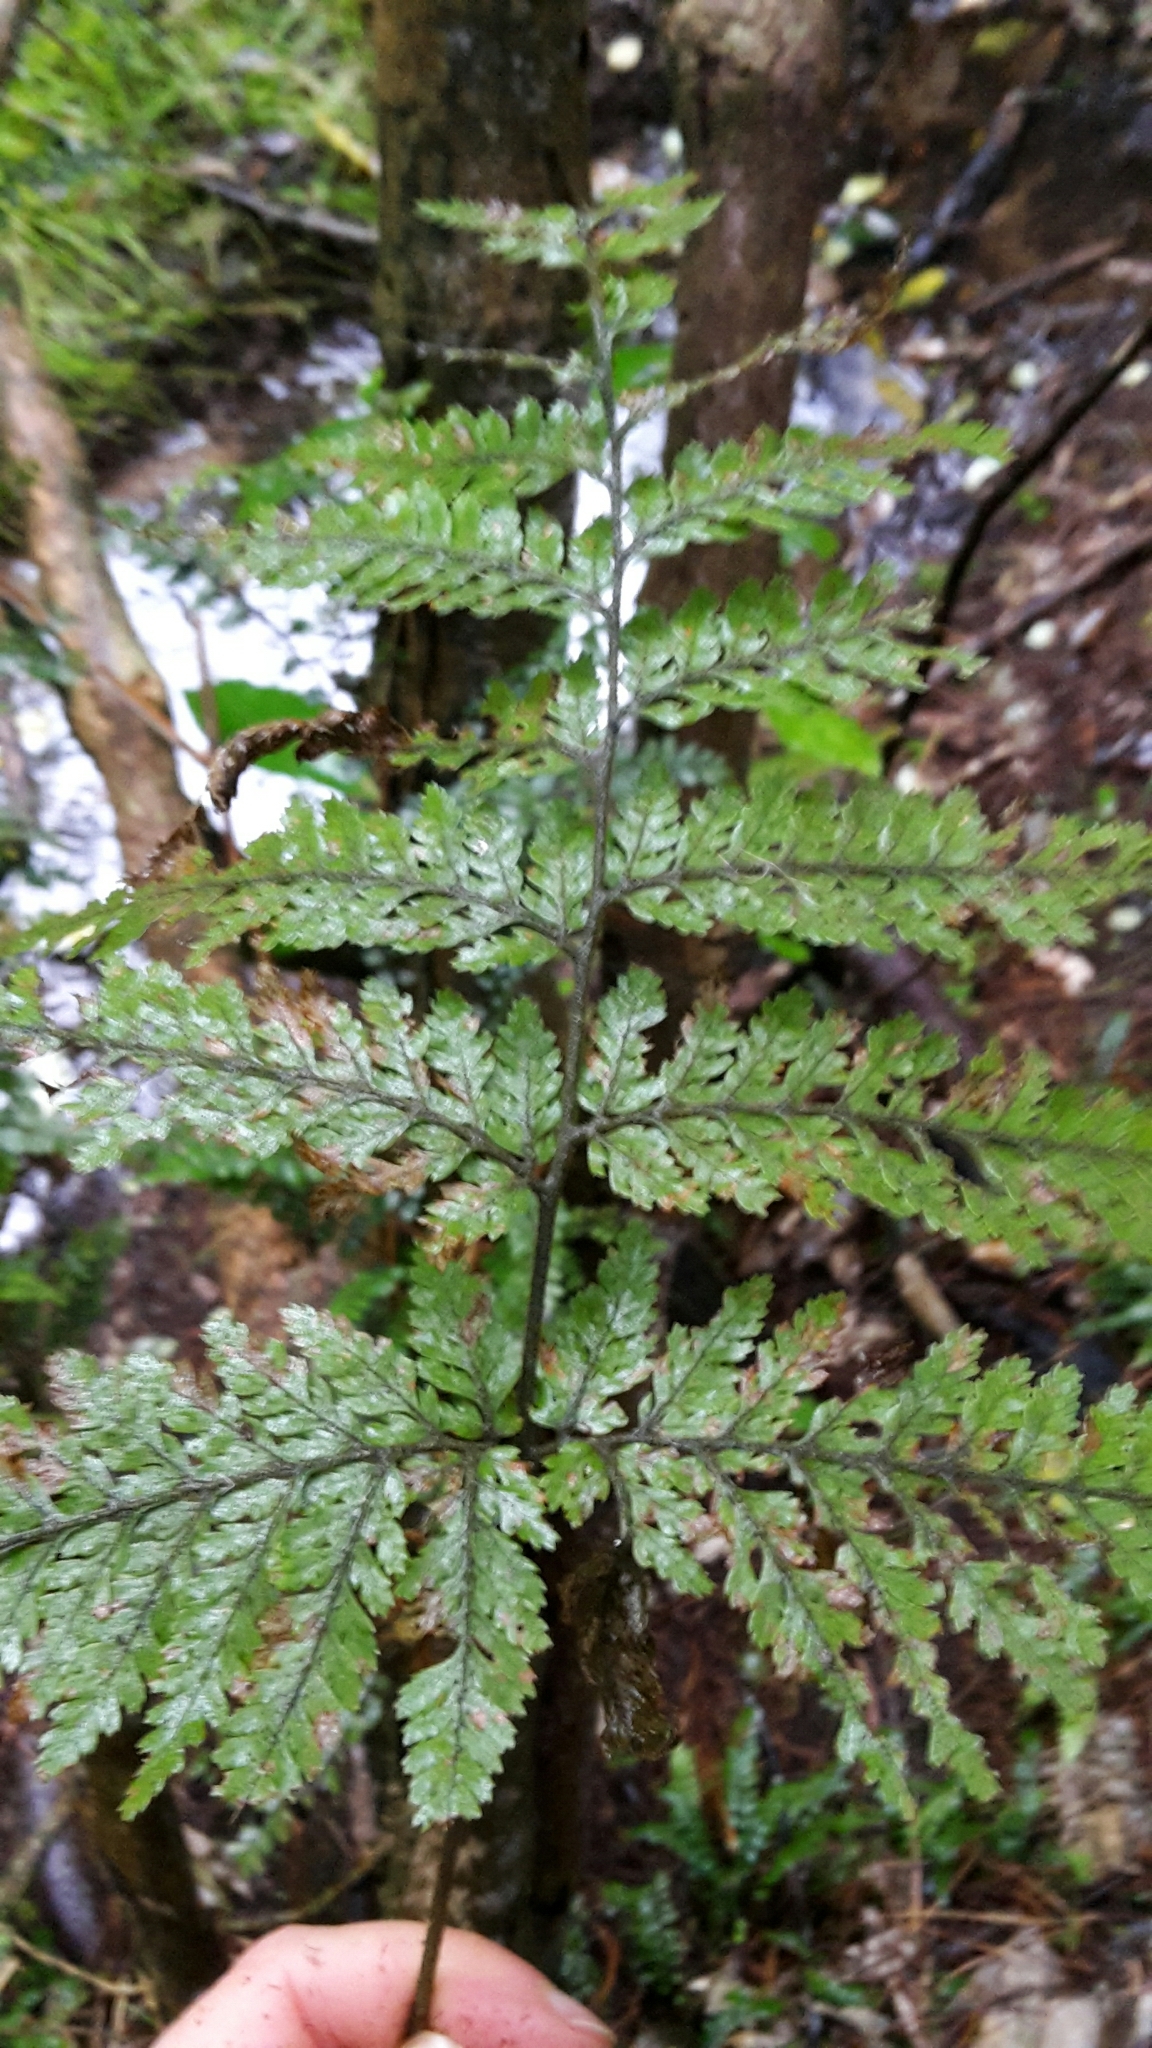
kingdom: Plantae
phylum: Tracheophyta
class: Polypodiopsida
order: Polypodiales
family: Dryopteridaceae
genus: Parapolystichum
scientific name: Parapolystichum microsorum
